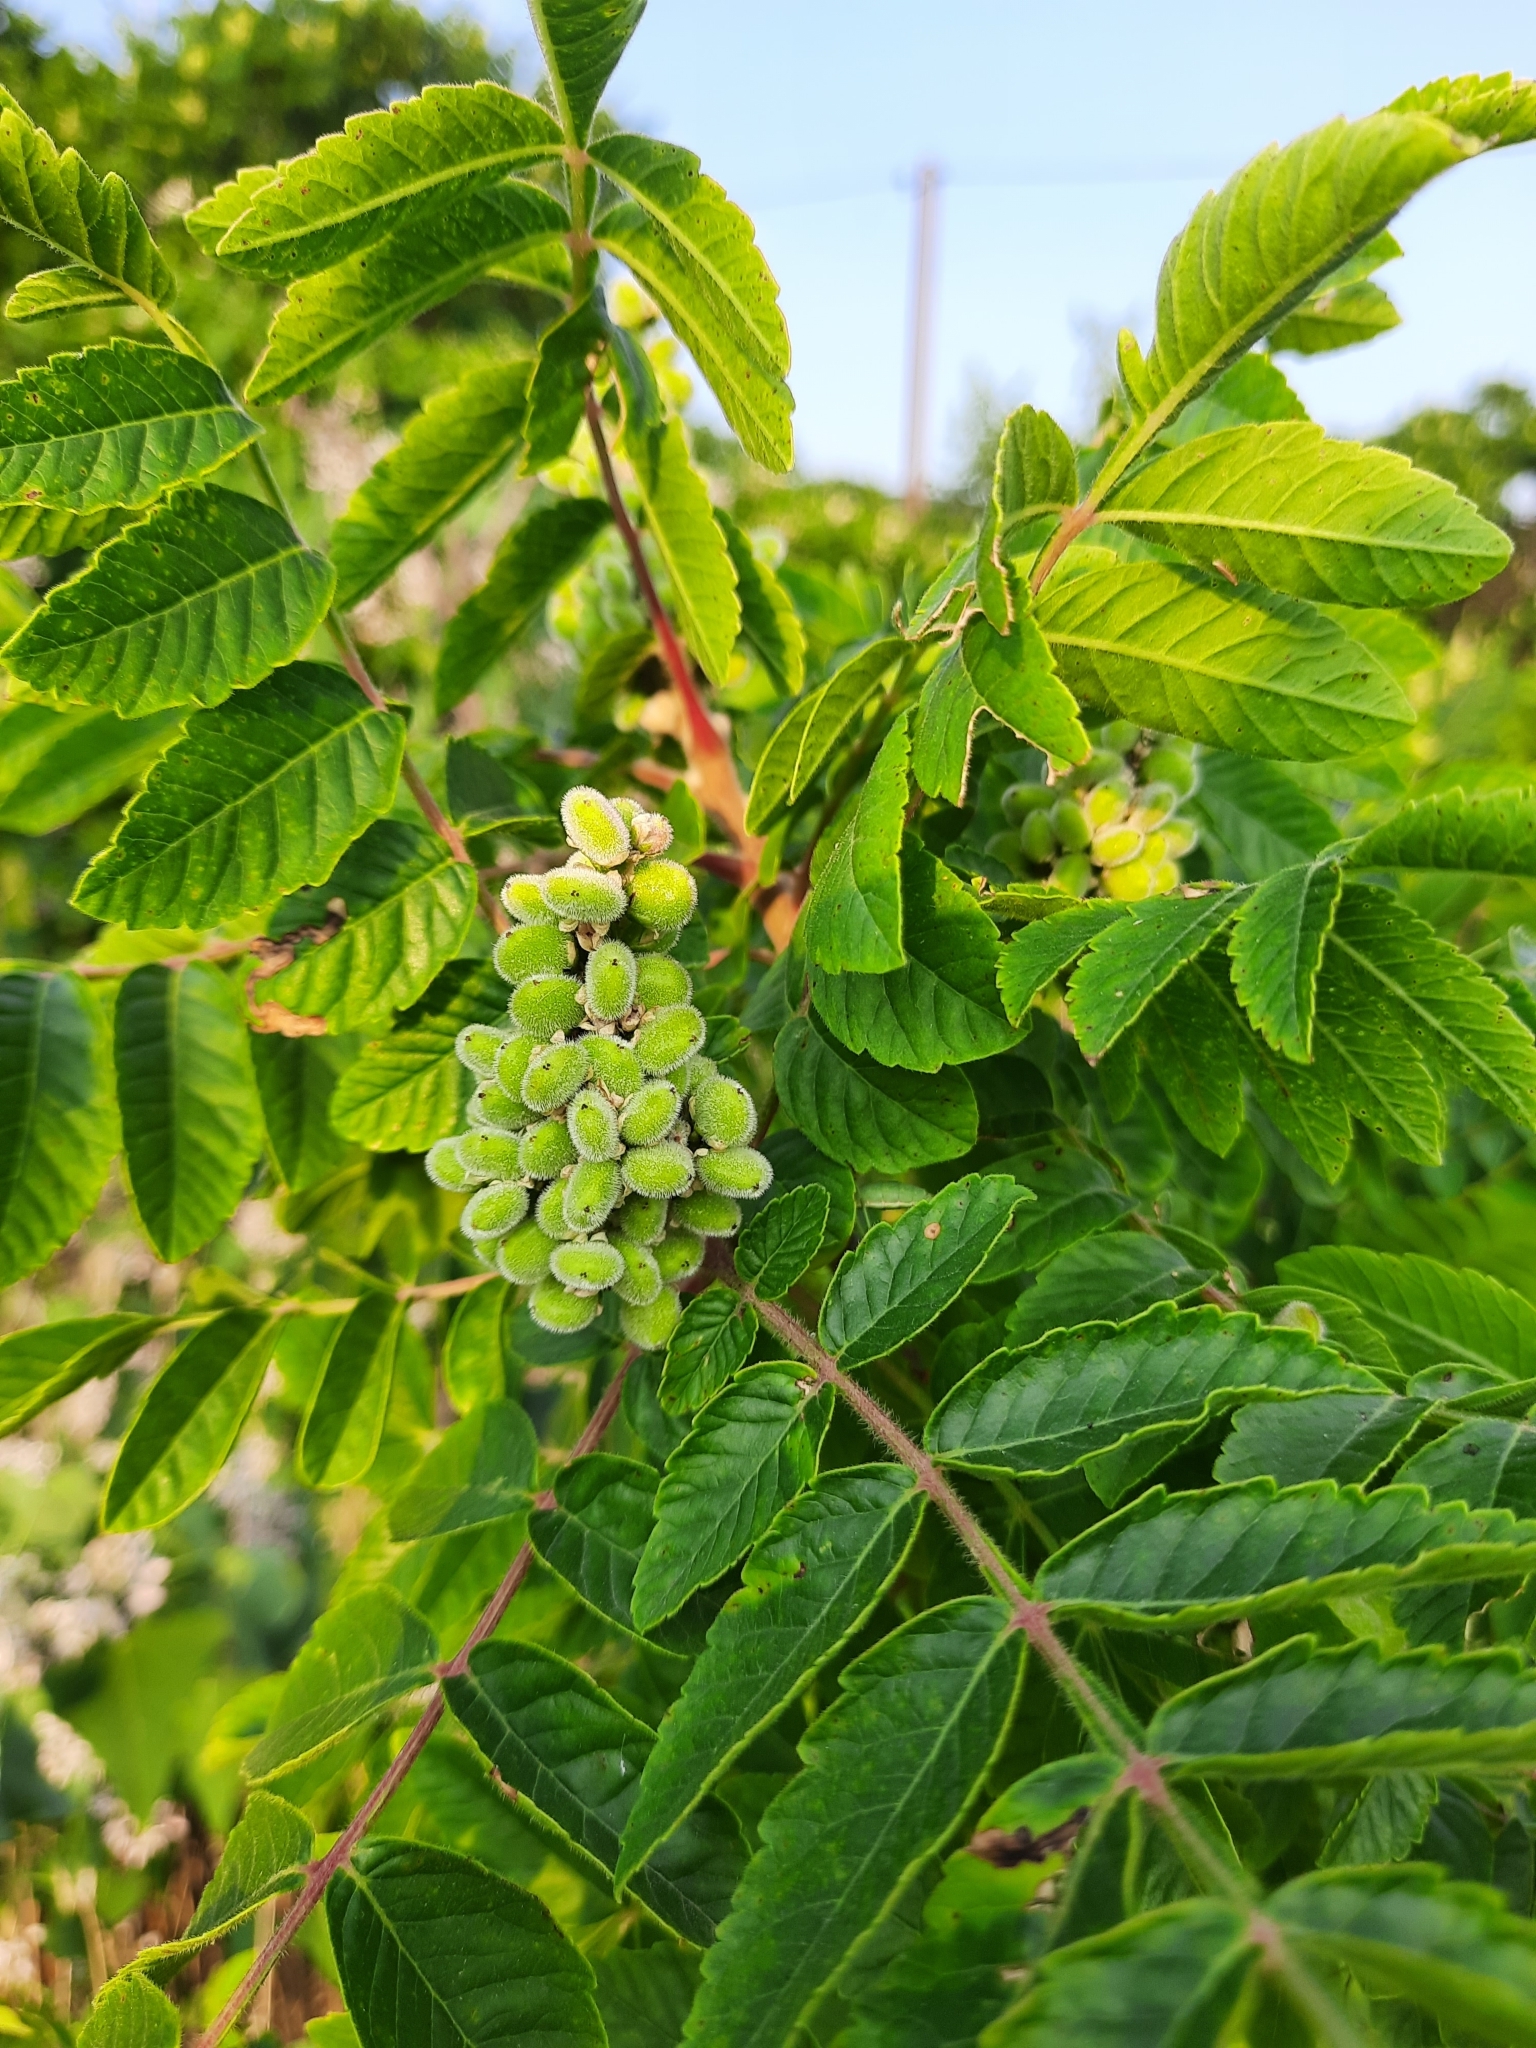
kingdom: Plantae
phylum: Tracheophyta
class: Magnoliopsida
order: Sapindales
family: Anacardiaceae
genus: Rhus
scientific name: Rhus coriaria
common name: Tanner's sumach
